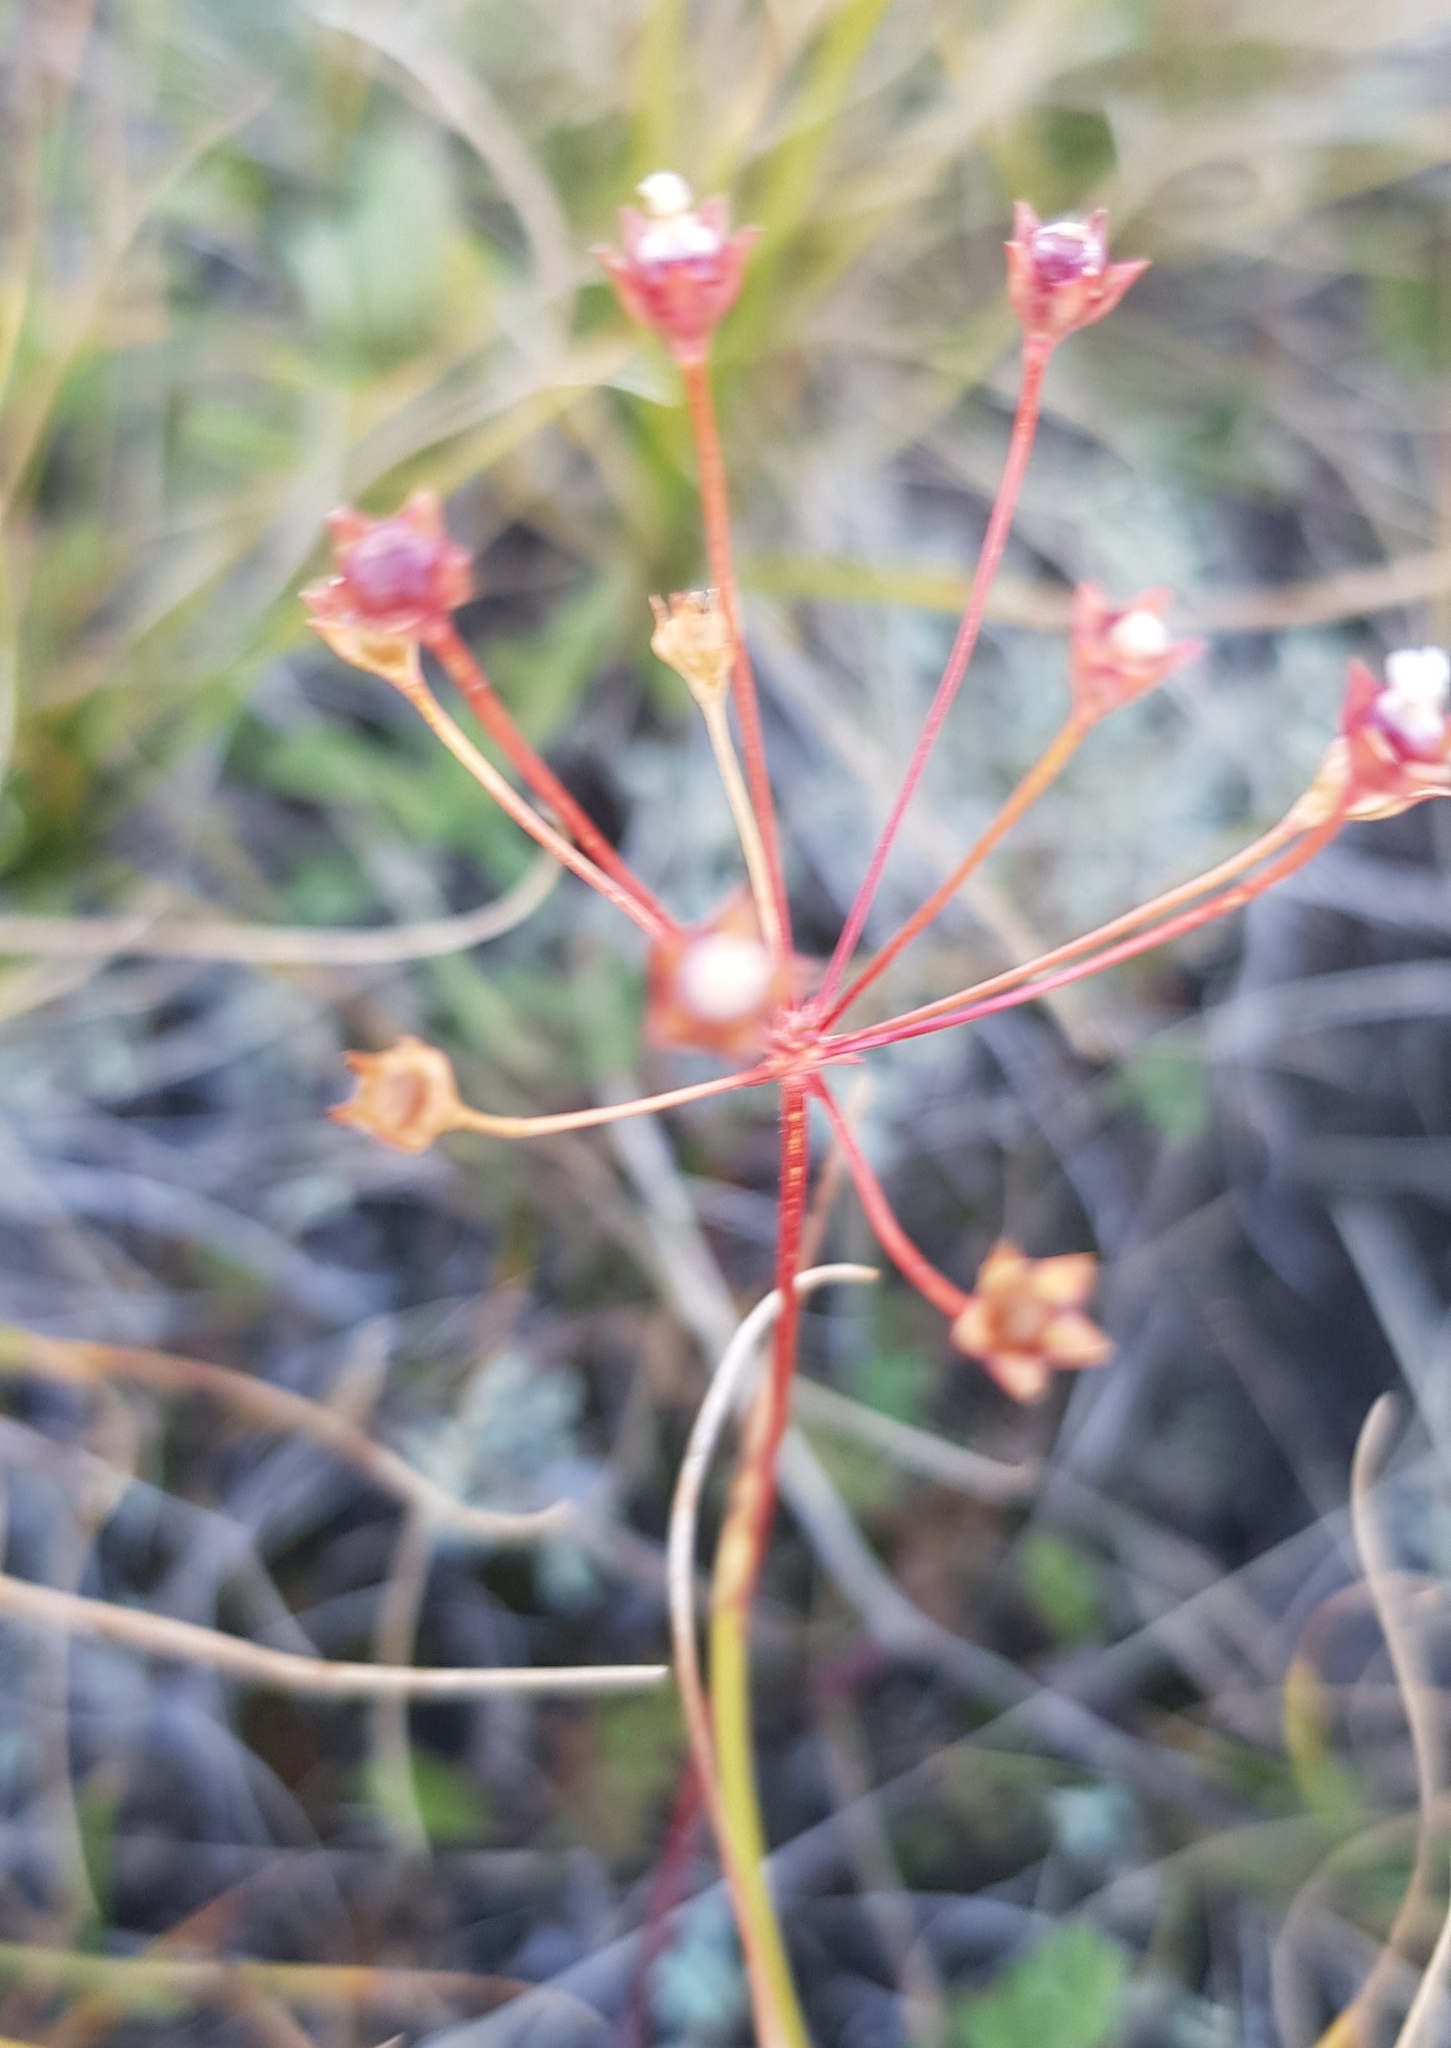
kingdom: Plantae
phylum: Tracheophyta
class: Magnoliopsida
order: Ericales
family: Primulaceae
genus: Androsace
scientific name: Androsace septentrionalis
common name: Hairy northern fairy-candelabra
